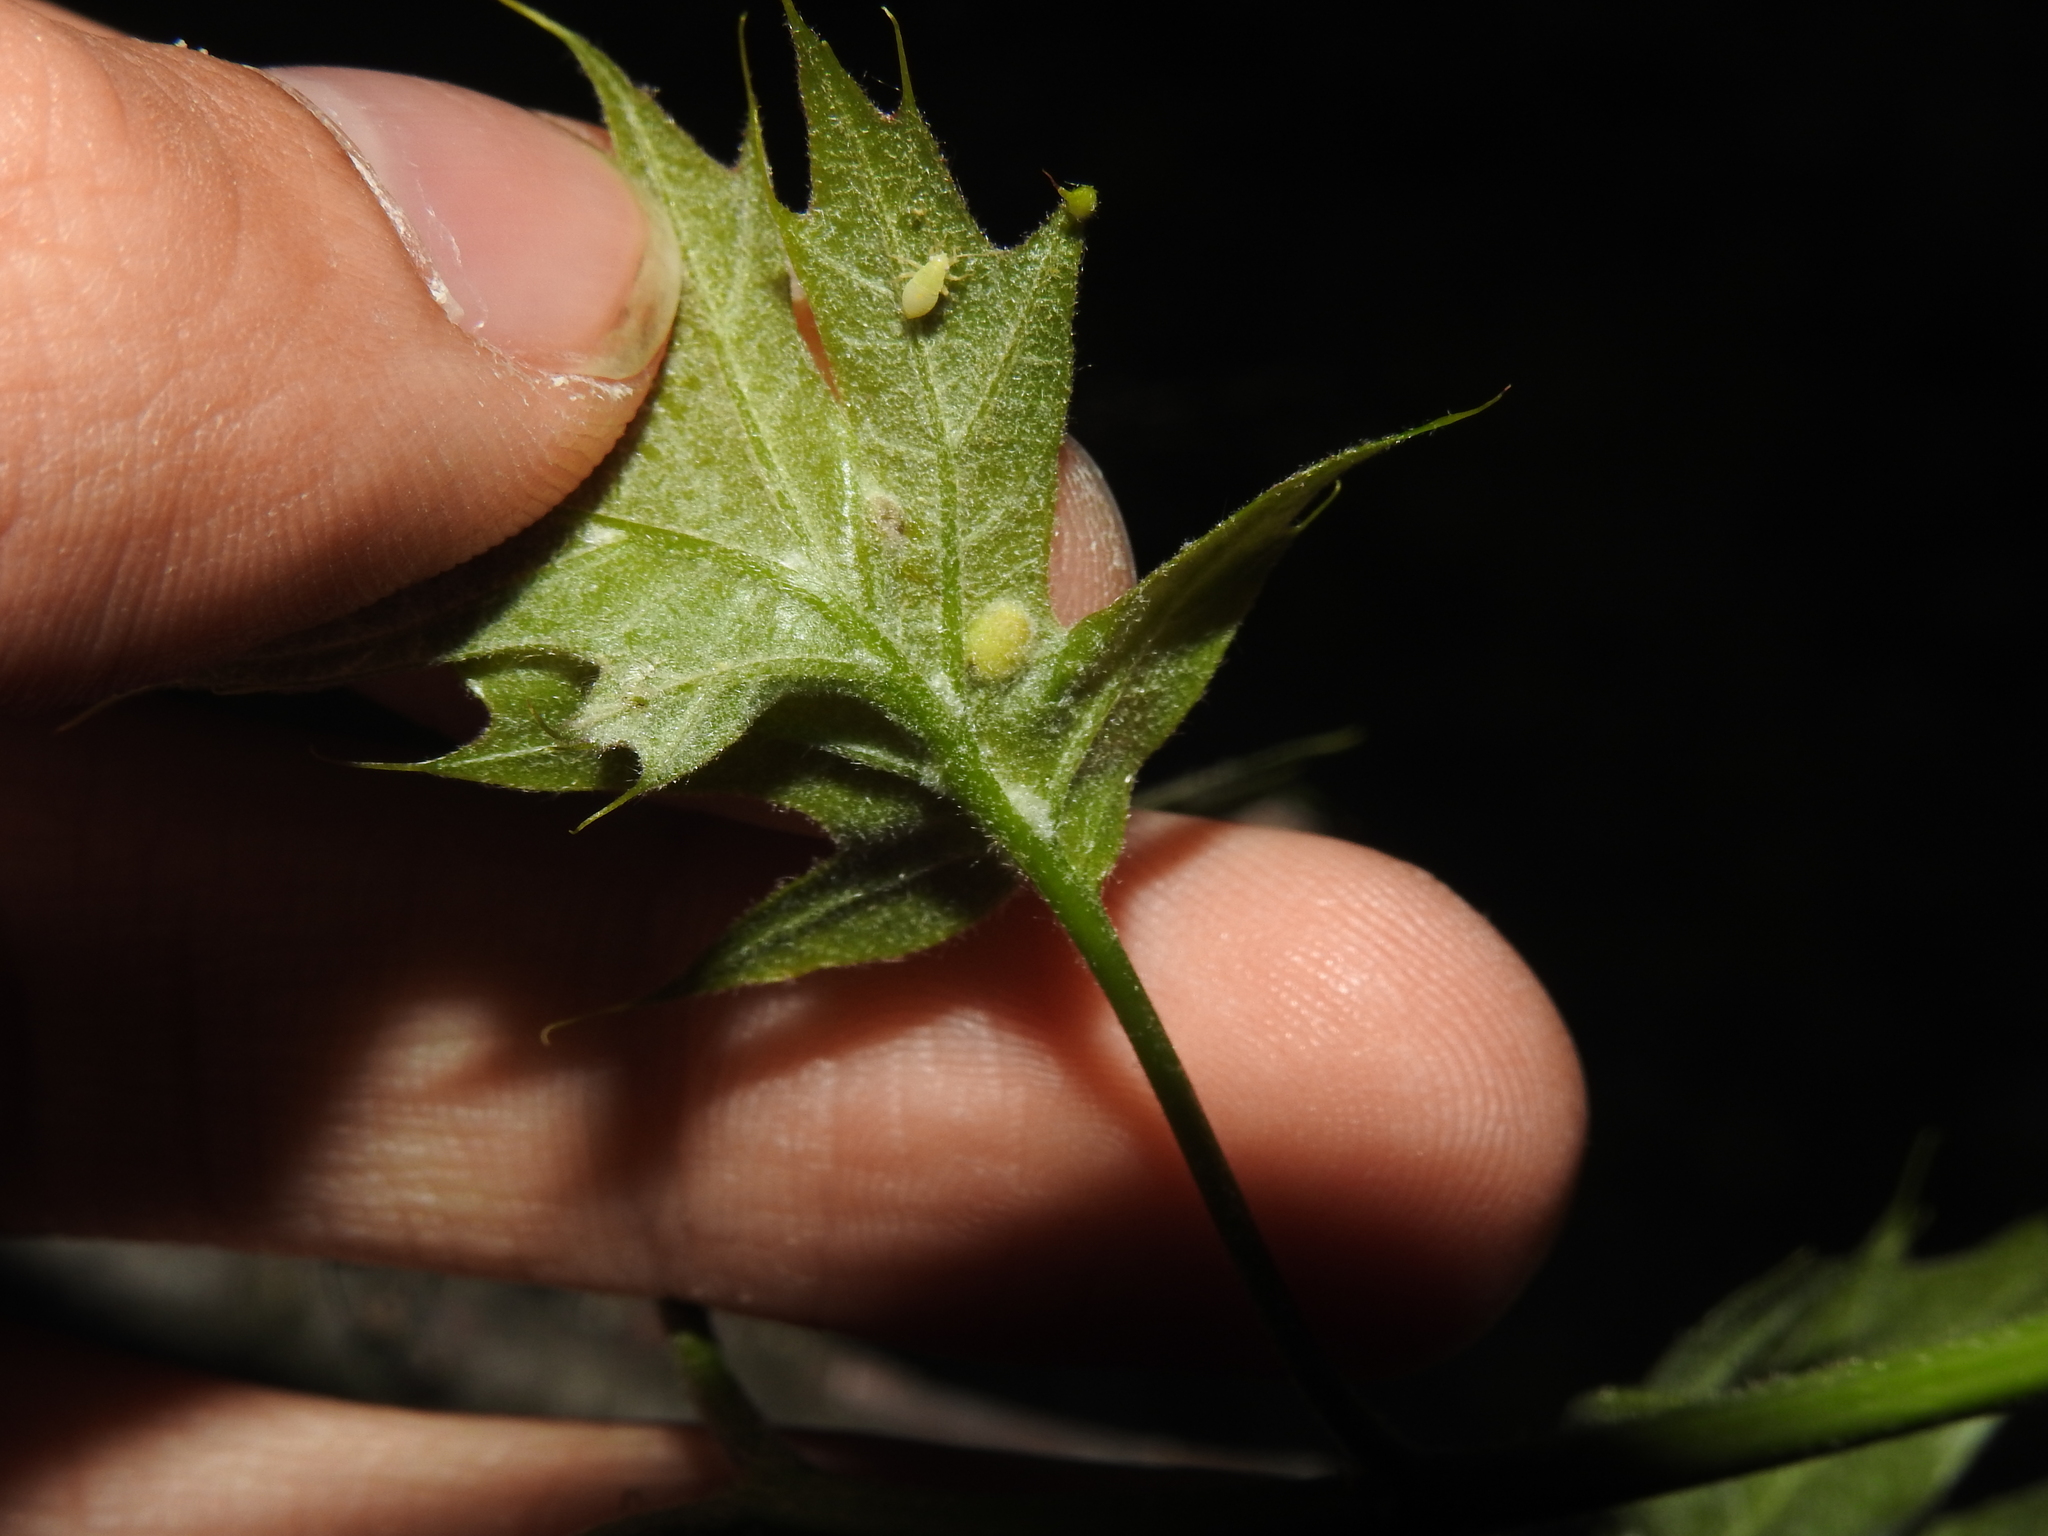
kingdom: Animalia
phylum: Arthropoda
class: Insecta
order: Hymenoptera
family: Cynipidae
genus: Dryocosmus
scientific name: Dryocosmus
